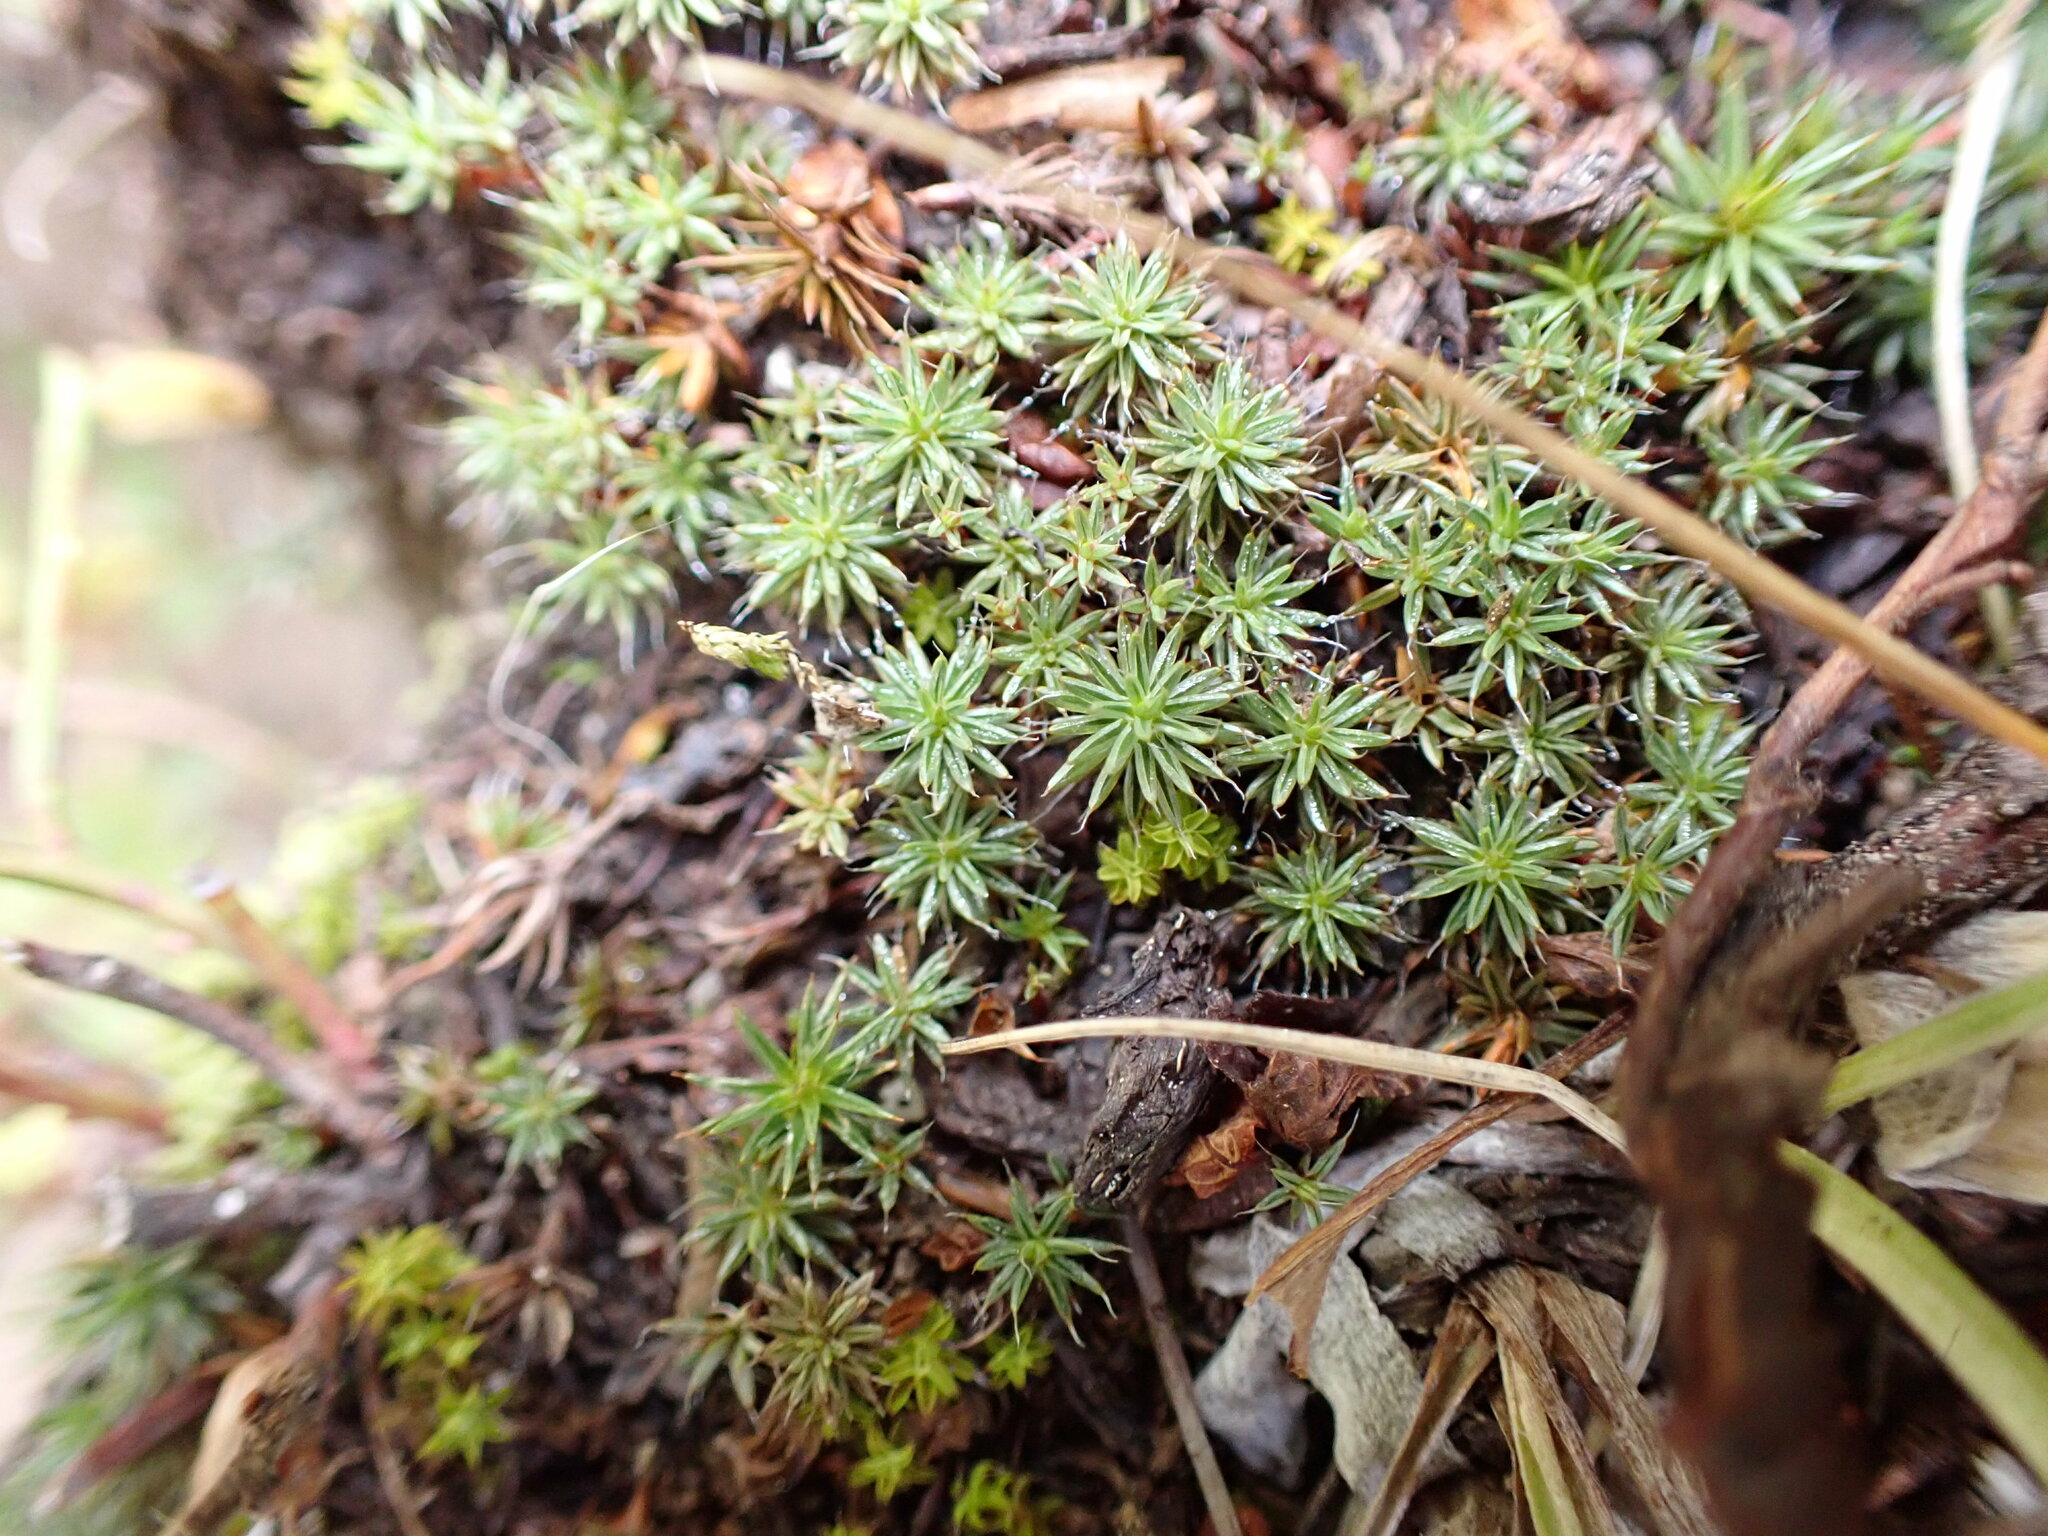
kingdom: Plantae
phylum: Bryophyta
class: Polytrichopsida
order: Polytrichales
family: Polytrichaceae
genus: Polytrichum
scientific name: Polytrichum piliferum
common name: Bristly haircap
